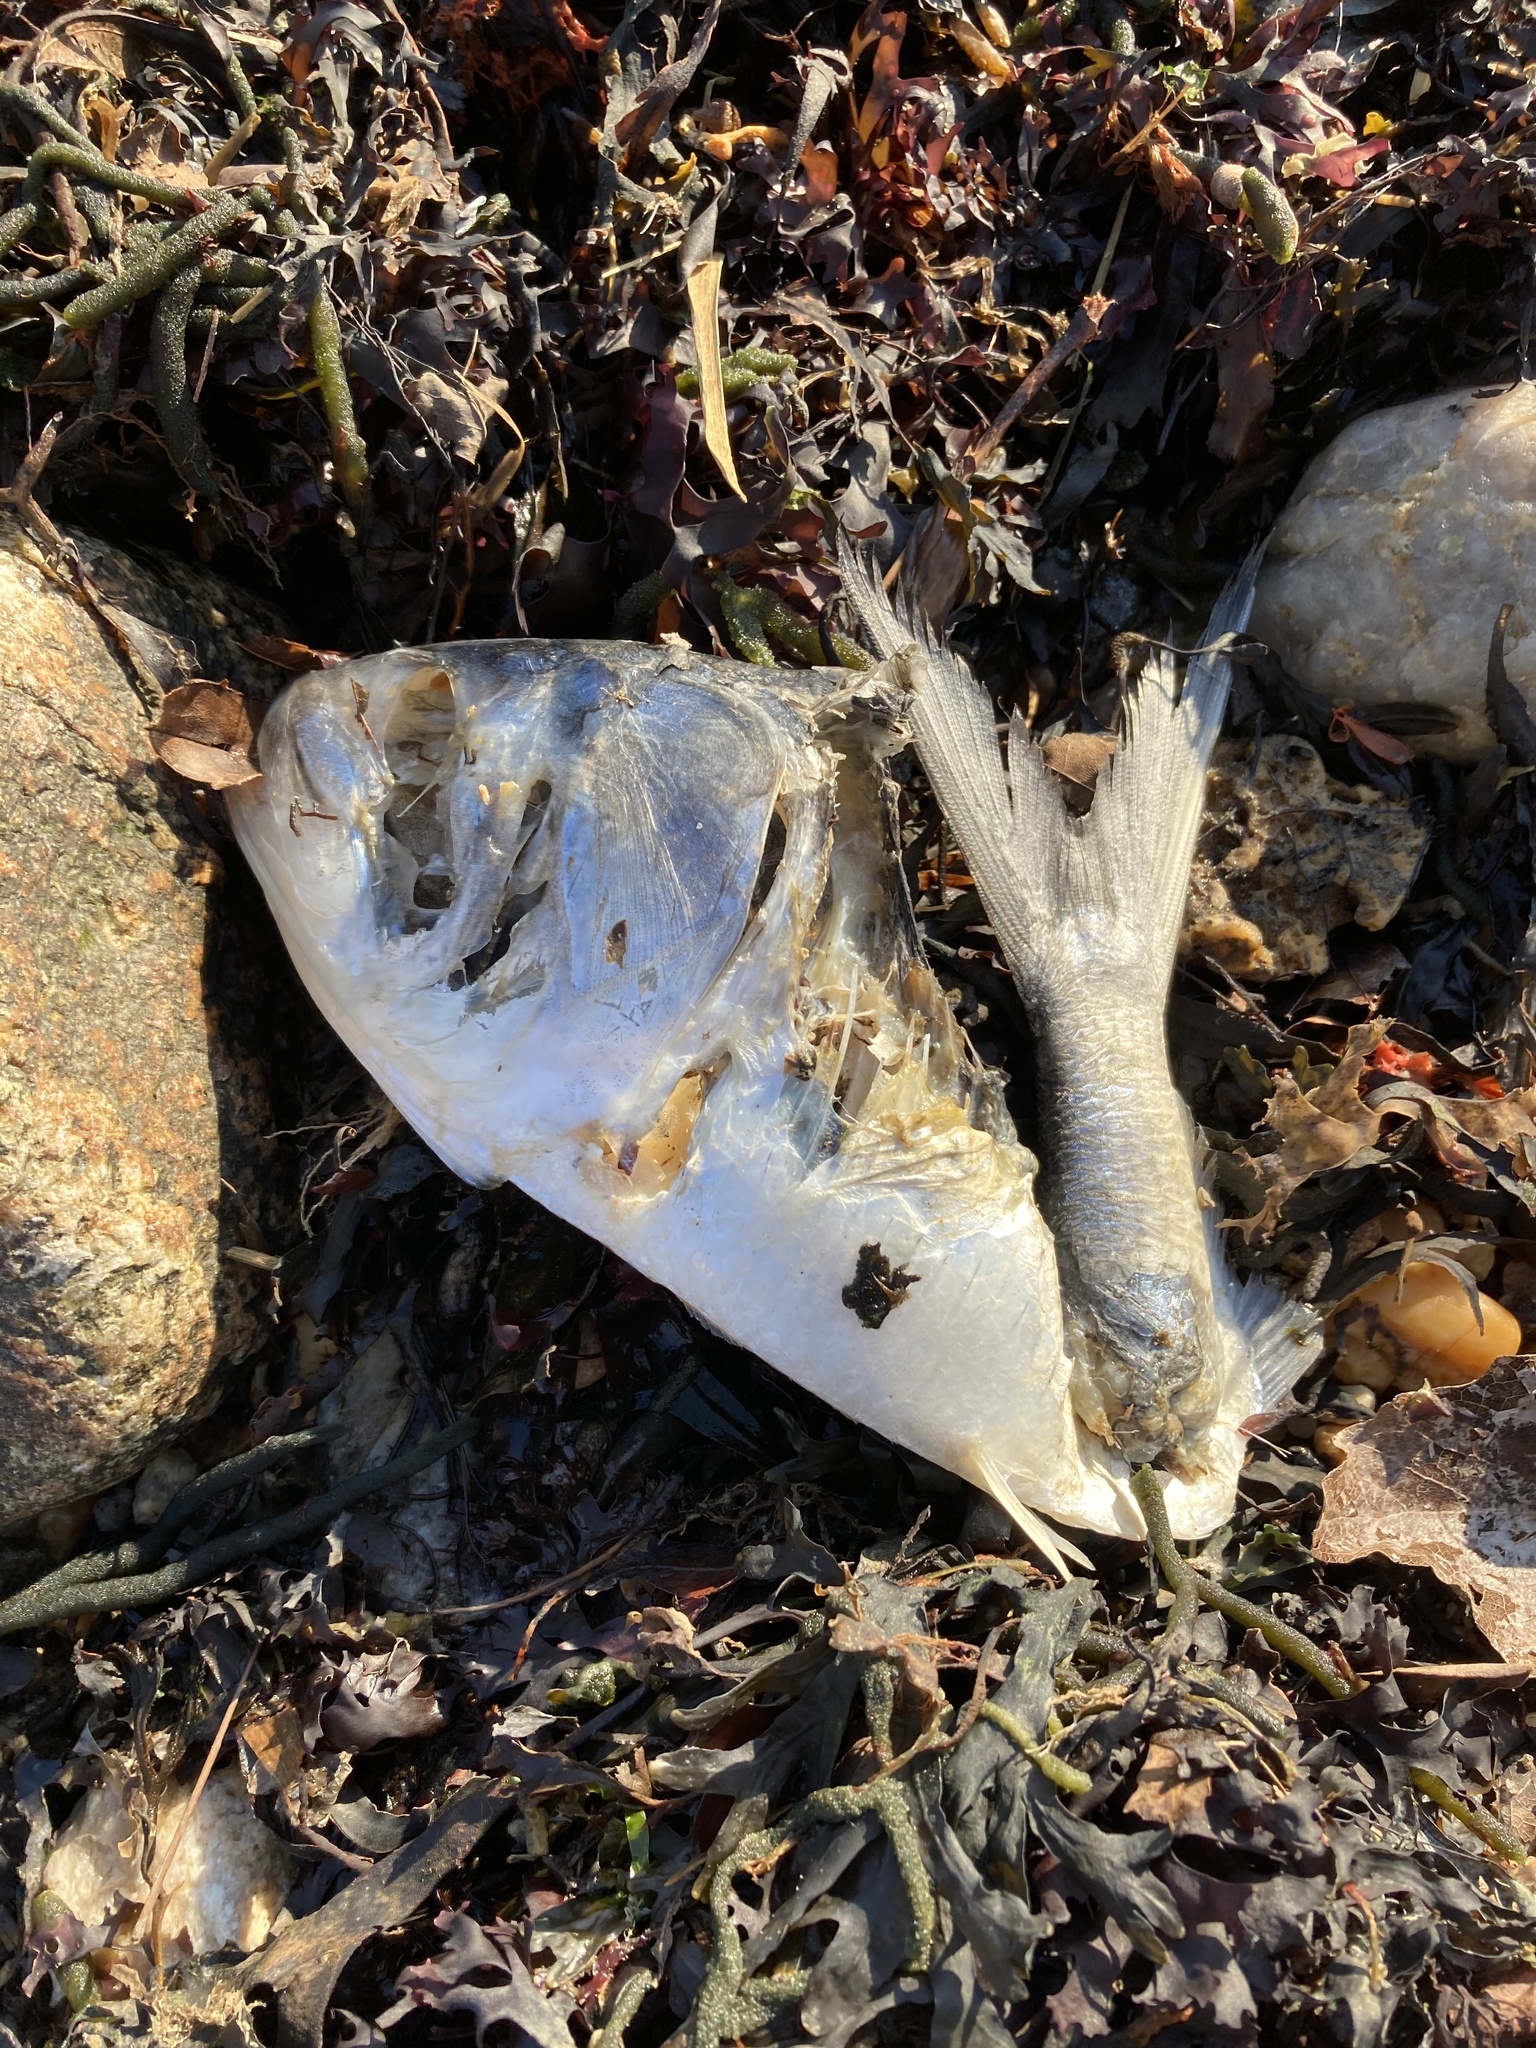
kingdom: Animalia
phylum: Chordata
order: Clupeiformes
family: Clupeidae
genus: Brevoortia
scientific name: Brevoortia tyrannus
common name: Atlantic menhaden
